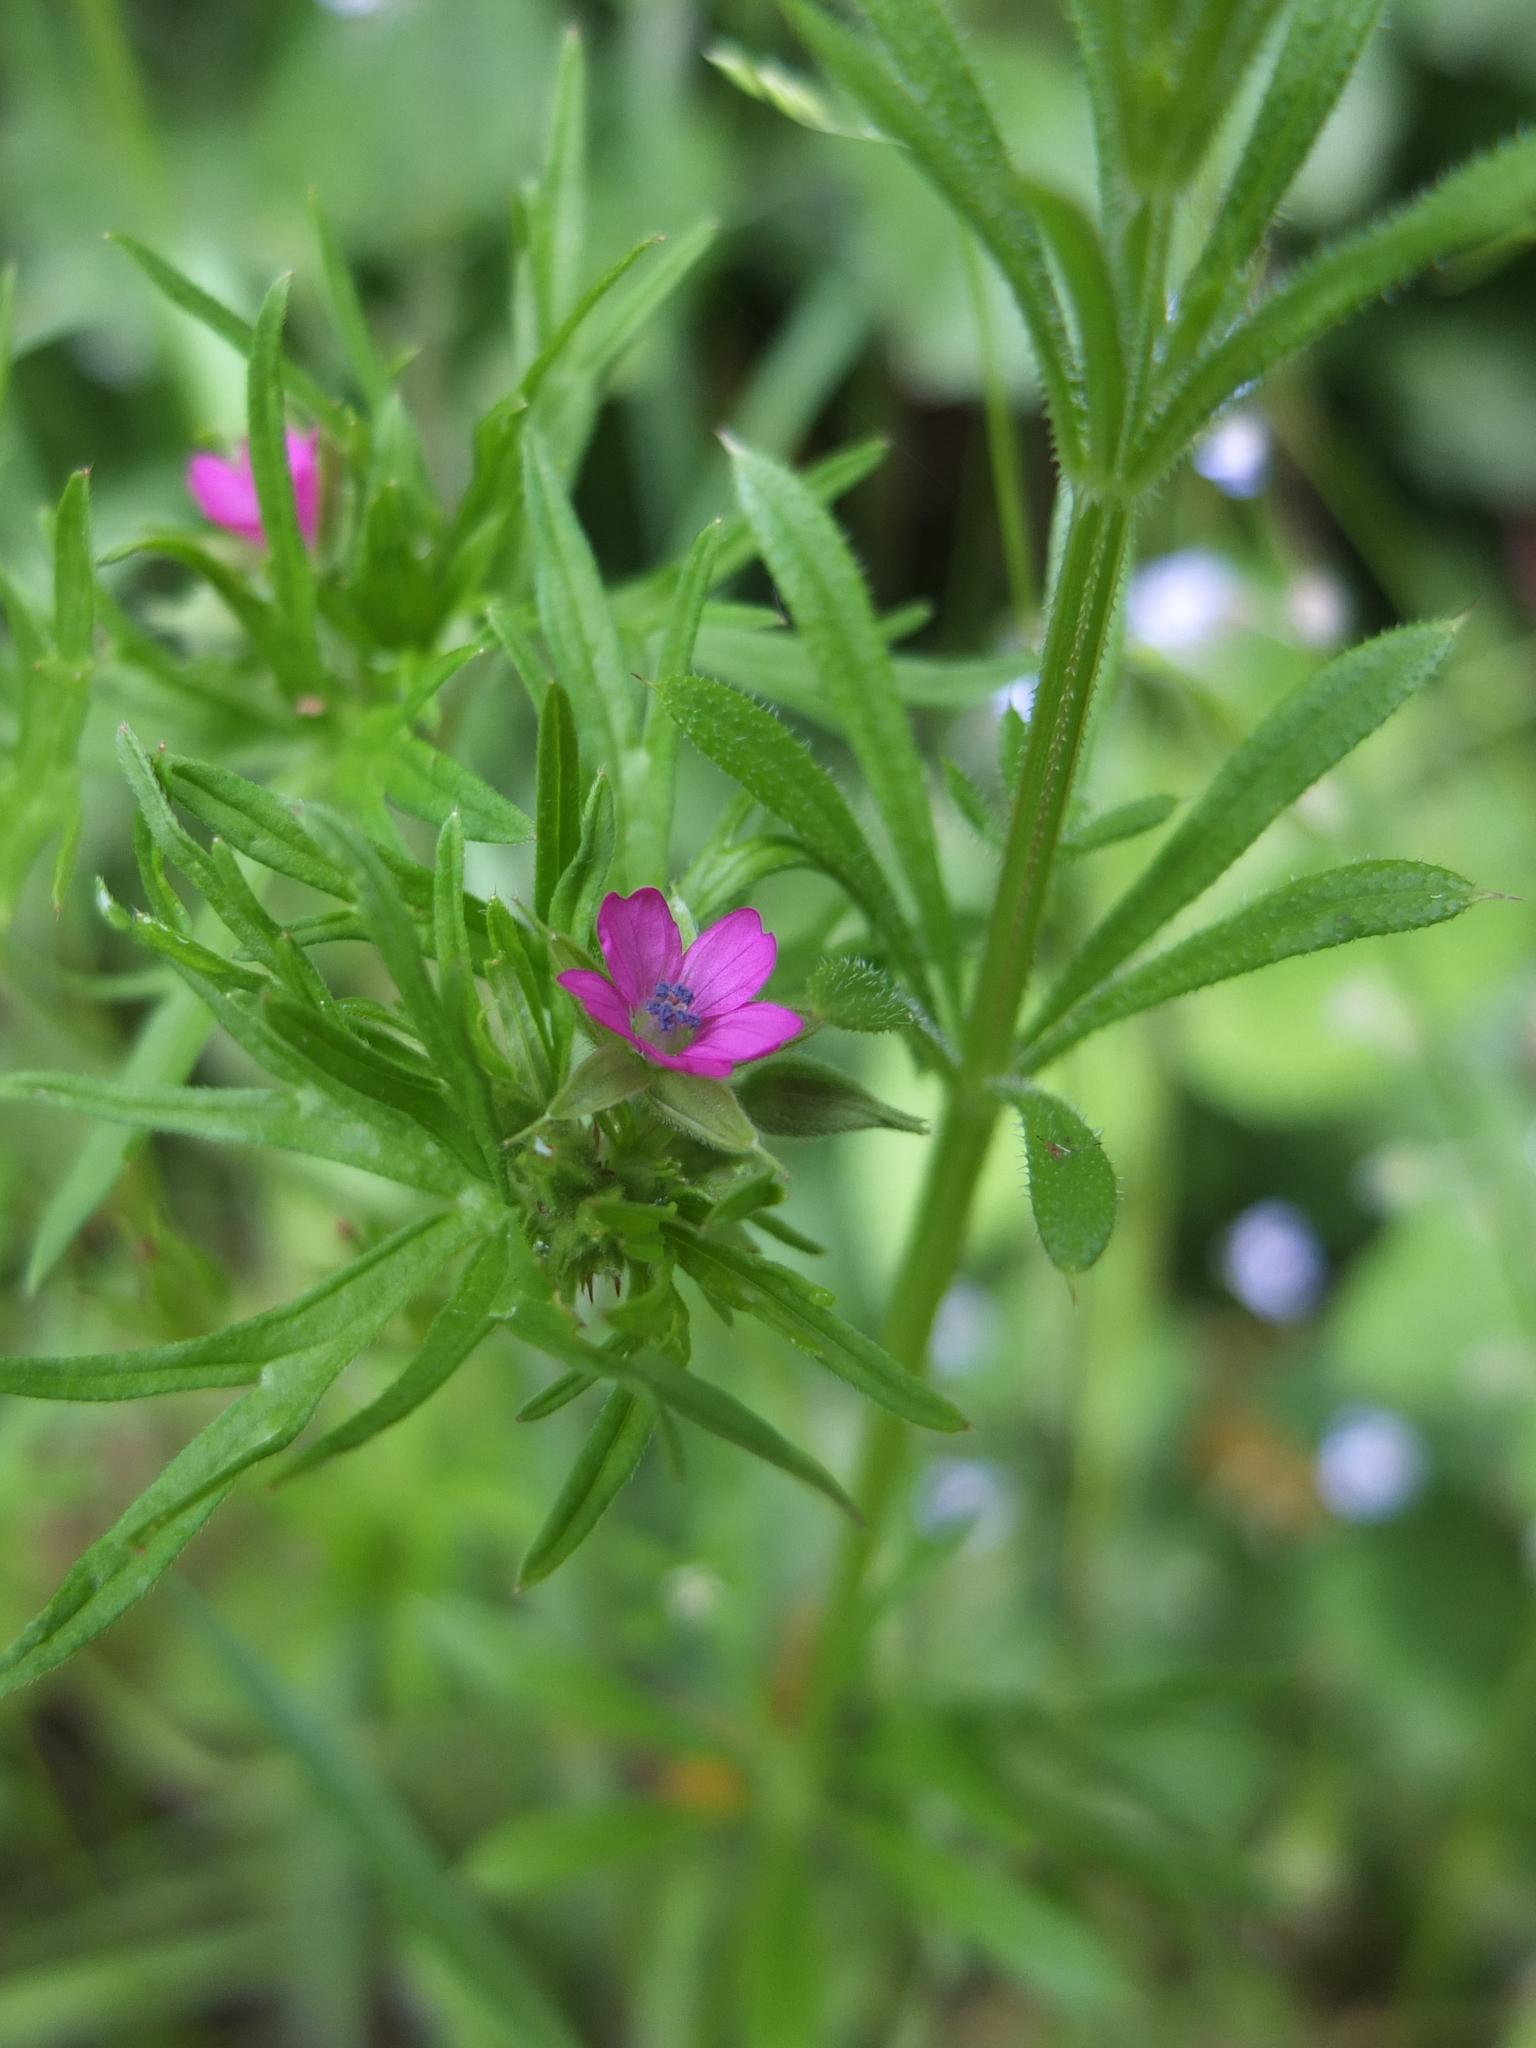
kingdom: Plantae
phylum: Tracheophyta
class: Magnoliopsida
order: Geraniales
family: Geraniaceae
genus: Geranium
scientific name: Geranium dissectum
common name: Cut-leaved crane's-bill
